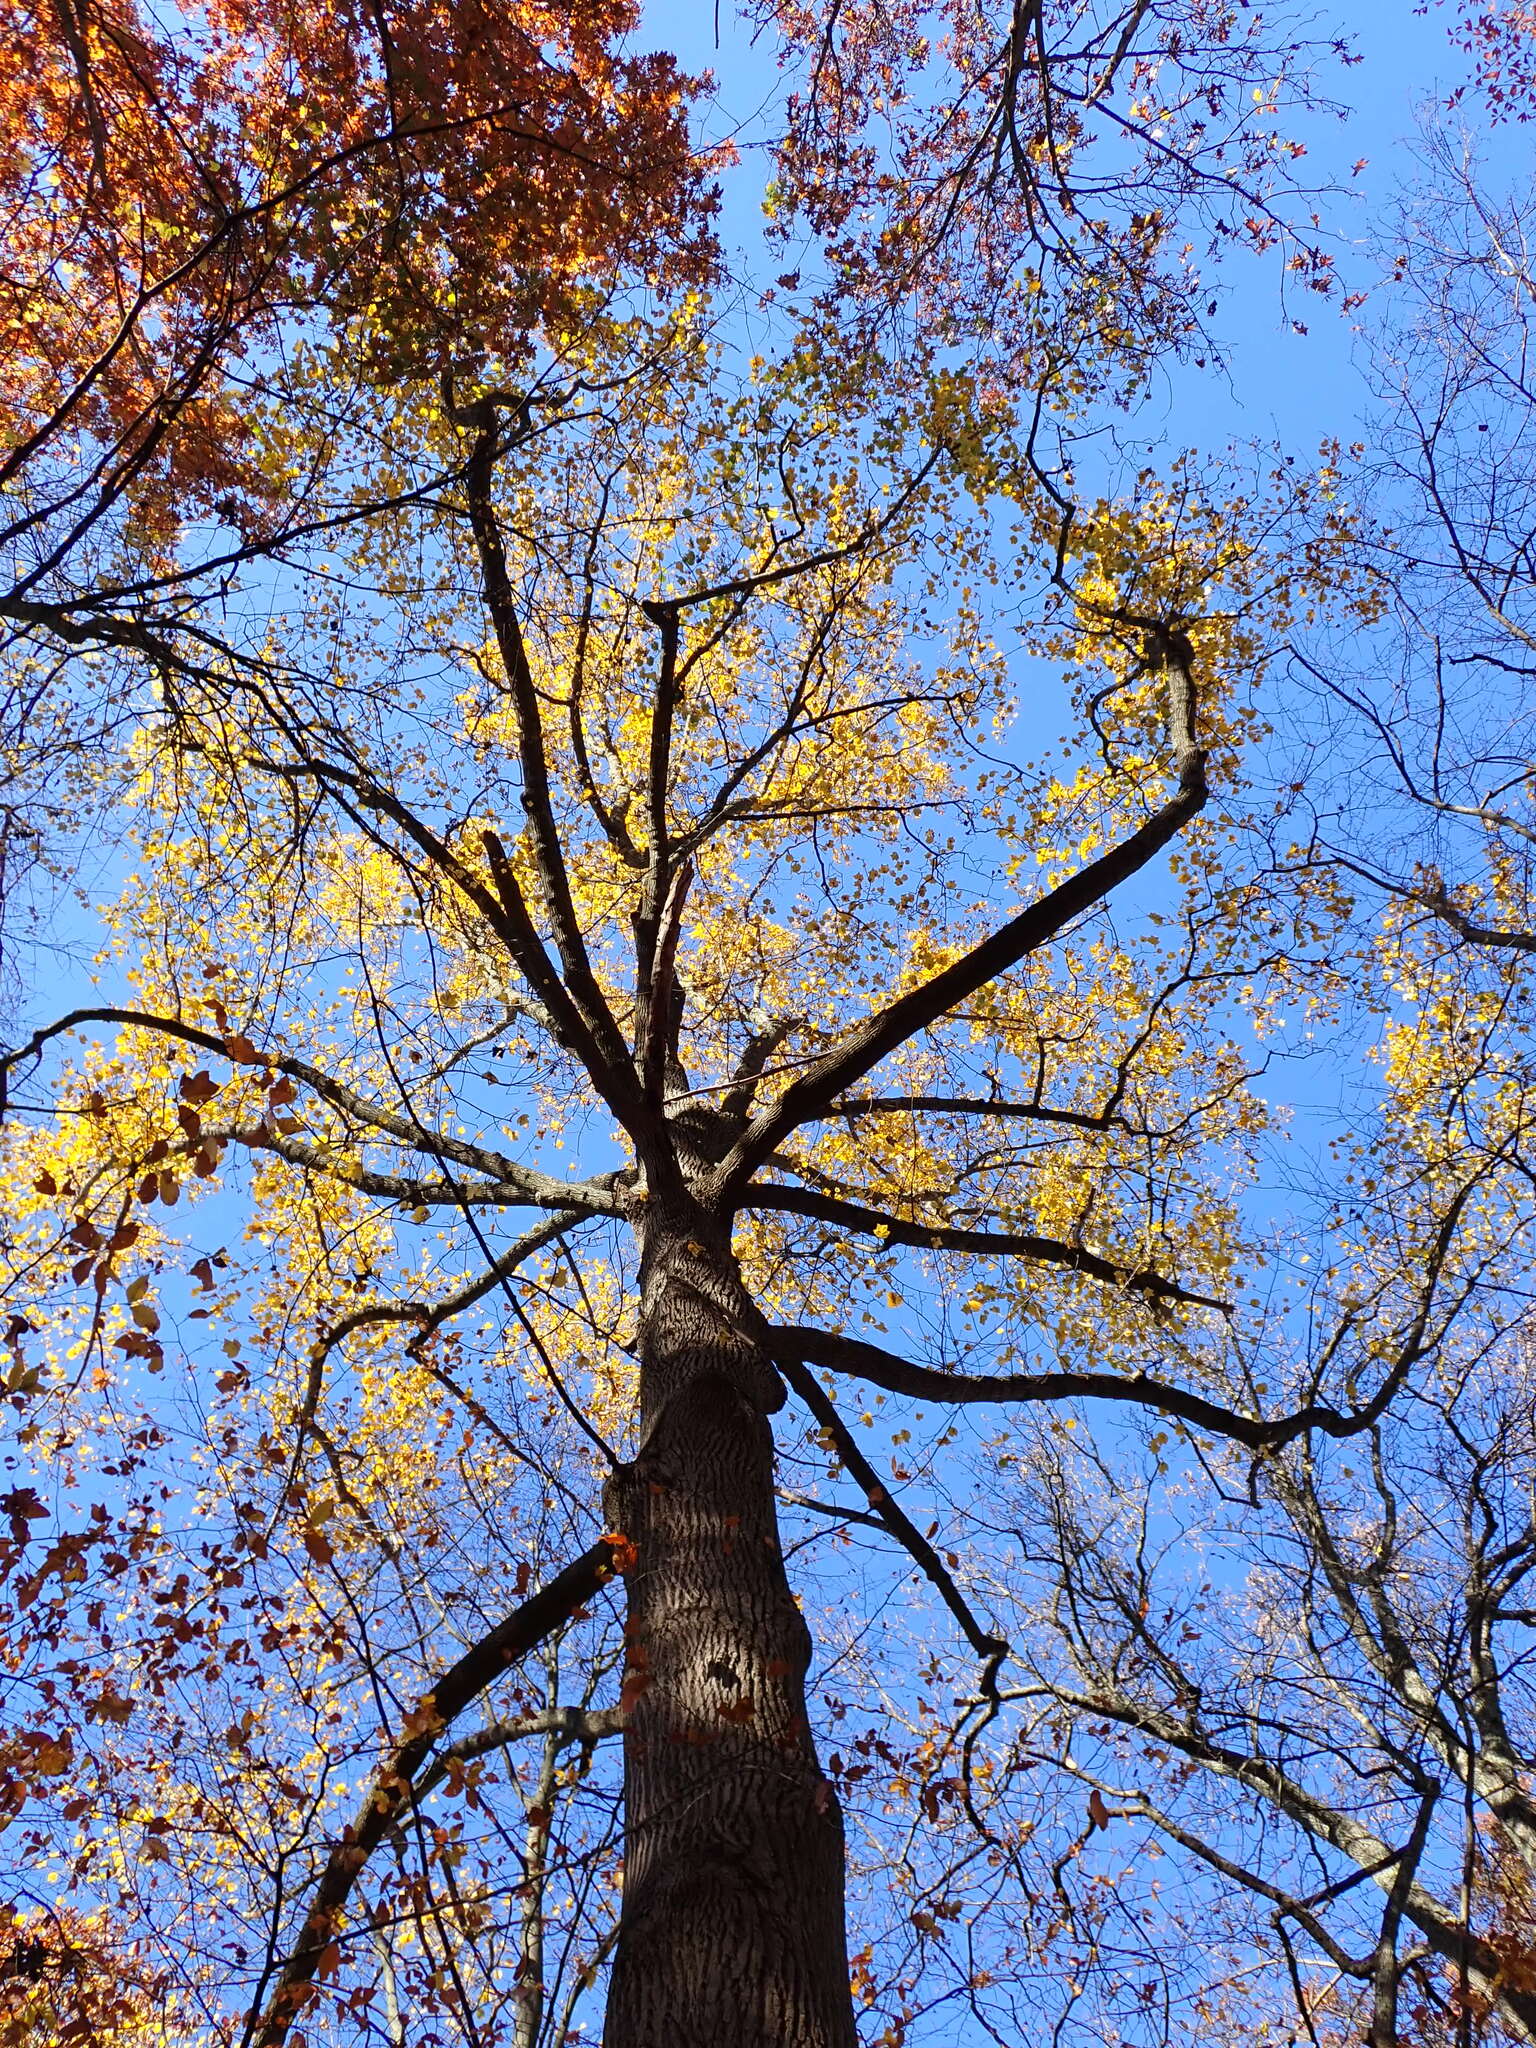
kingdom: Plantae
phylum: Tracheophyta
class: Magnoliopsida
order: Magnoliales
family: Magnoliaceae
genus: Liriodendron
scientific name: Liriodendron tulipifera
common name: Tulip tree
